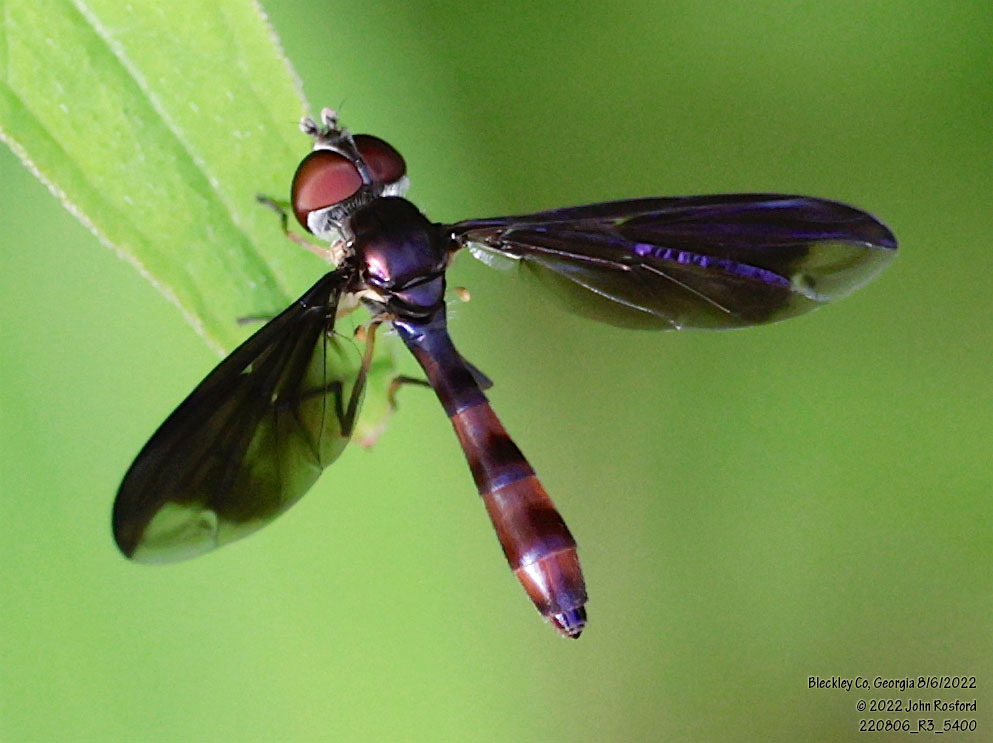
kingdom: Animalia
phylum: Arthropoda
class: Insecta
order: Diptera
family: Syrphidae
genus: Ocyptamus
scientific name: Ocyptamus fuscipennis
